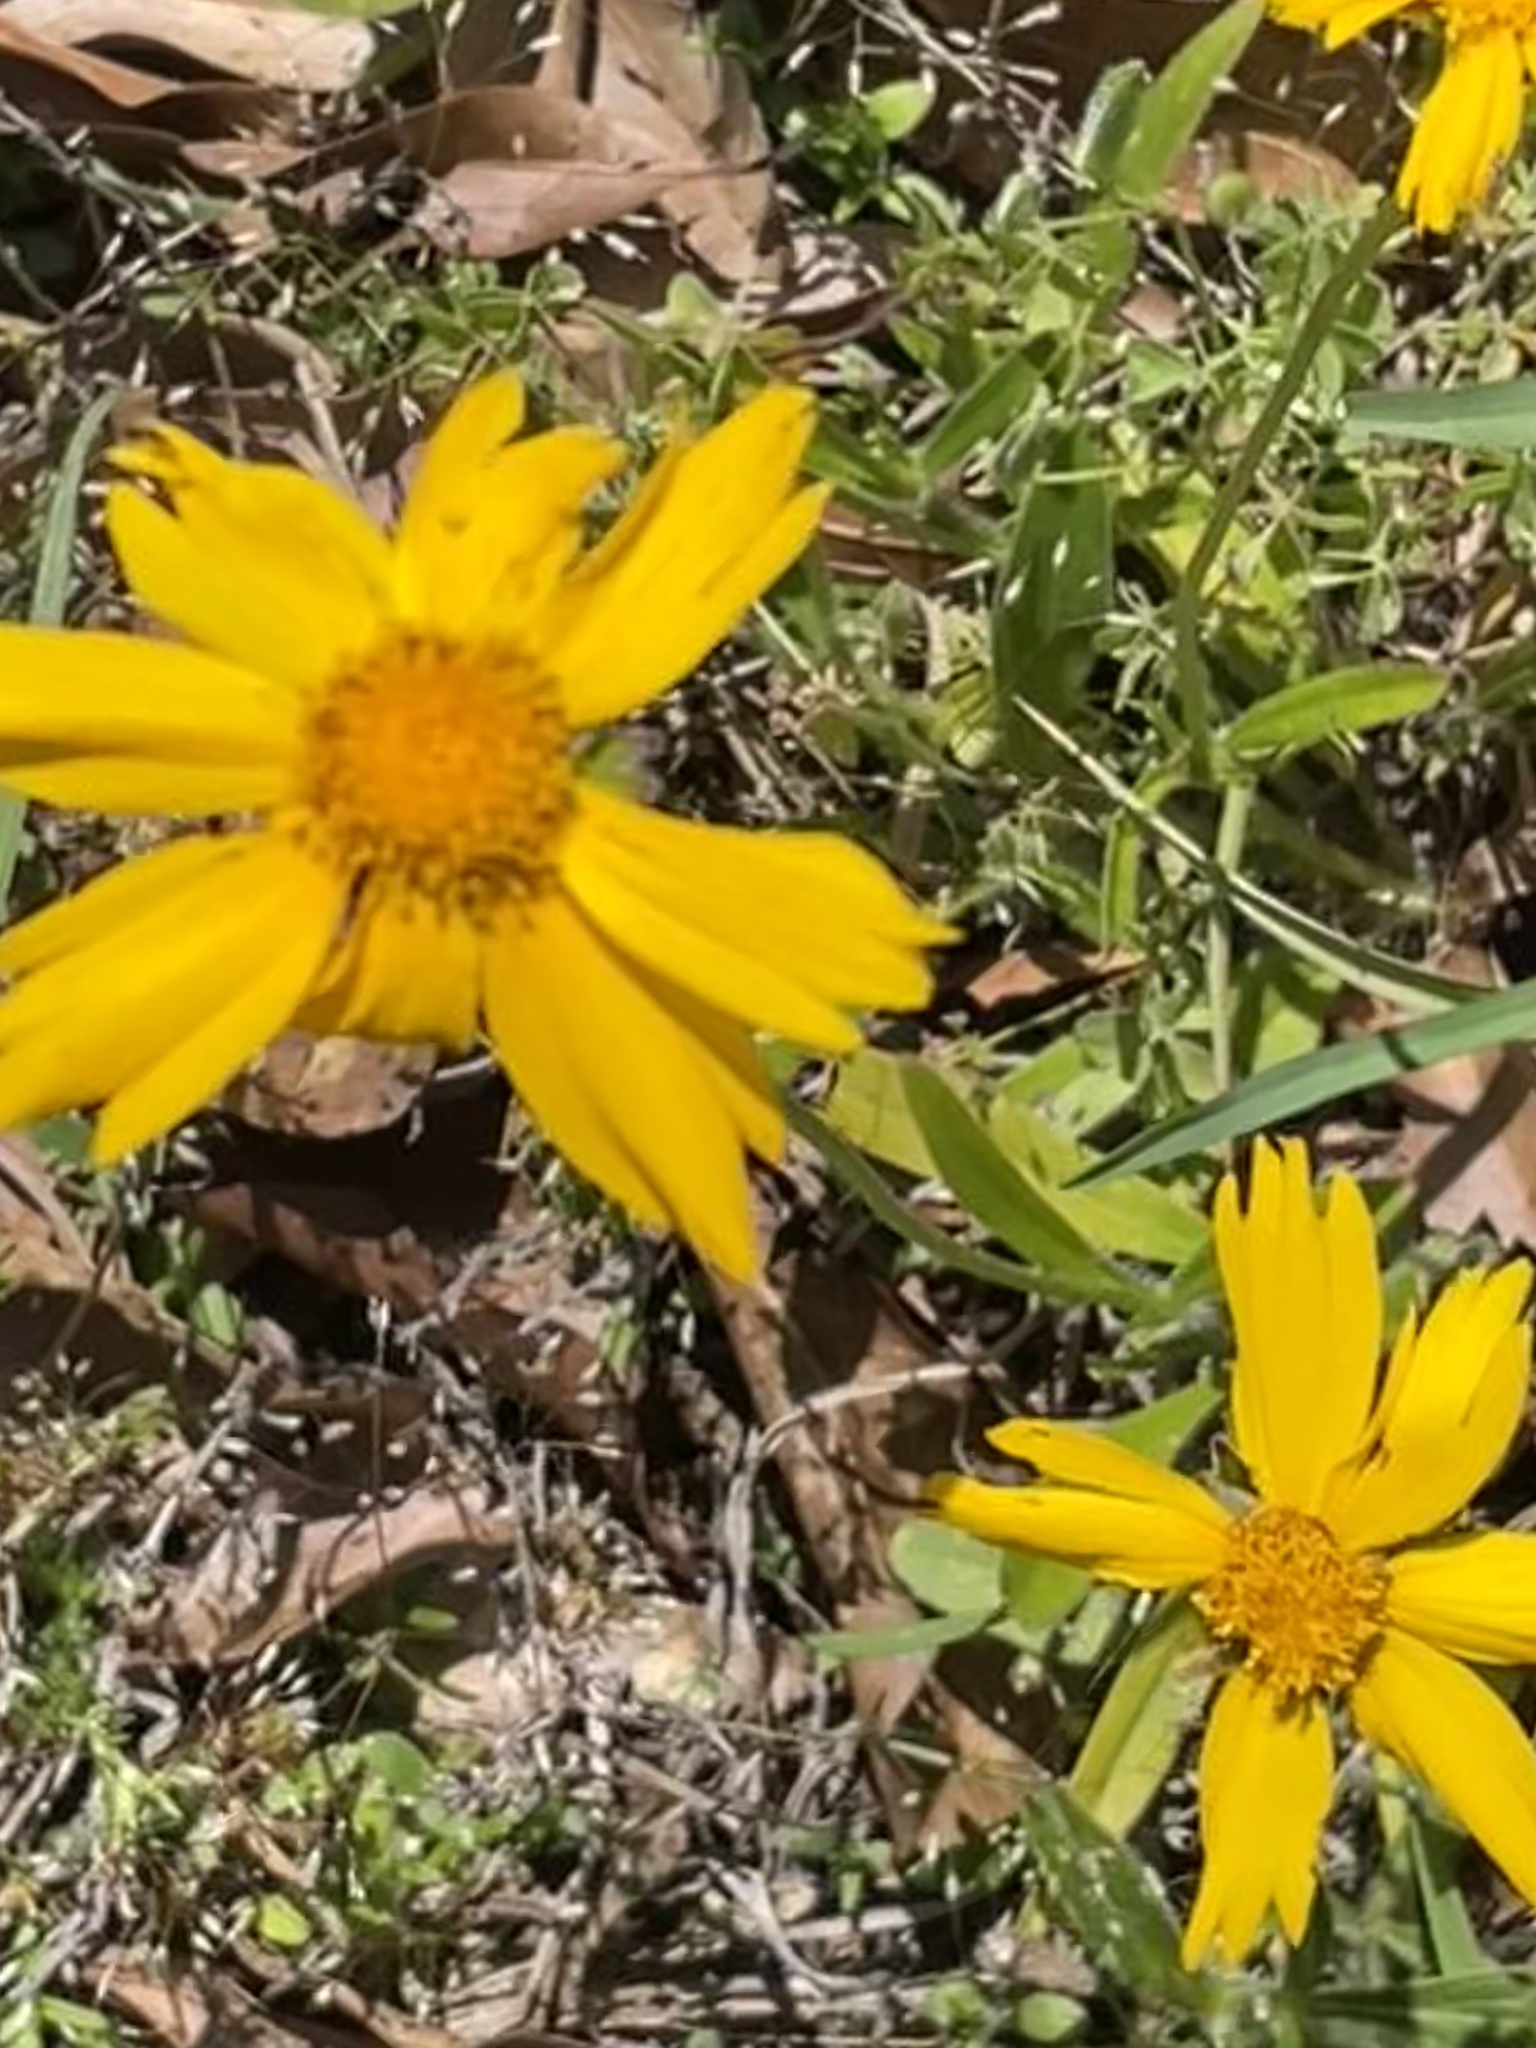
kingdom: Plantae
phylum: Tracheophyta
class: Magnoliopsida
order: Asterales
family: Asteraceae
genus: Coreopsis
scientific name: Coreopsis lanceolata
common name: Garden coreopsis
